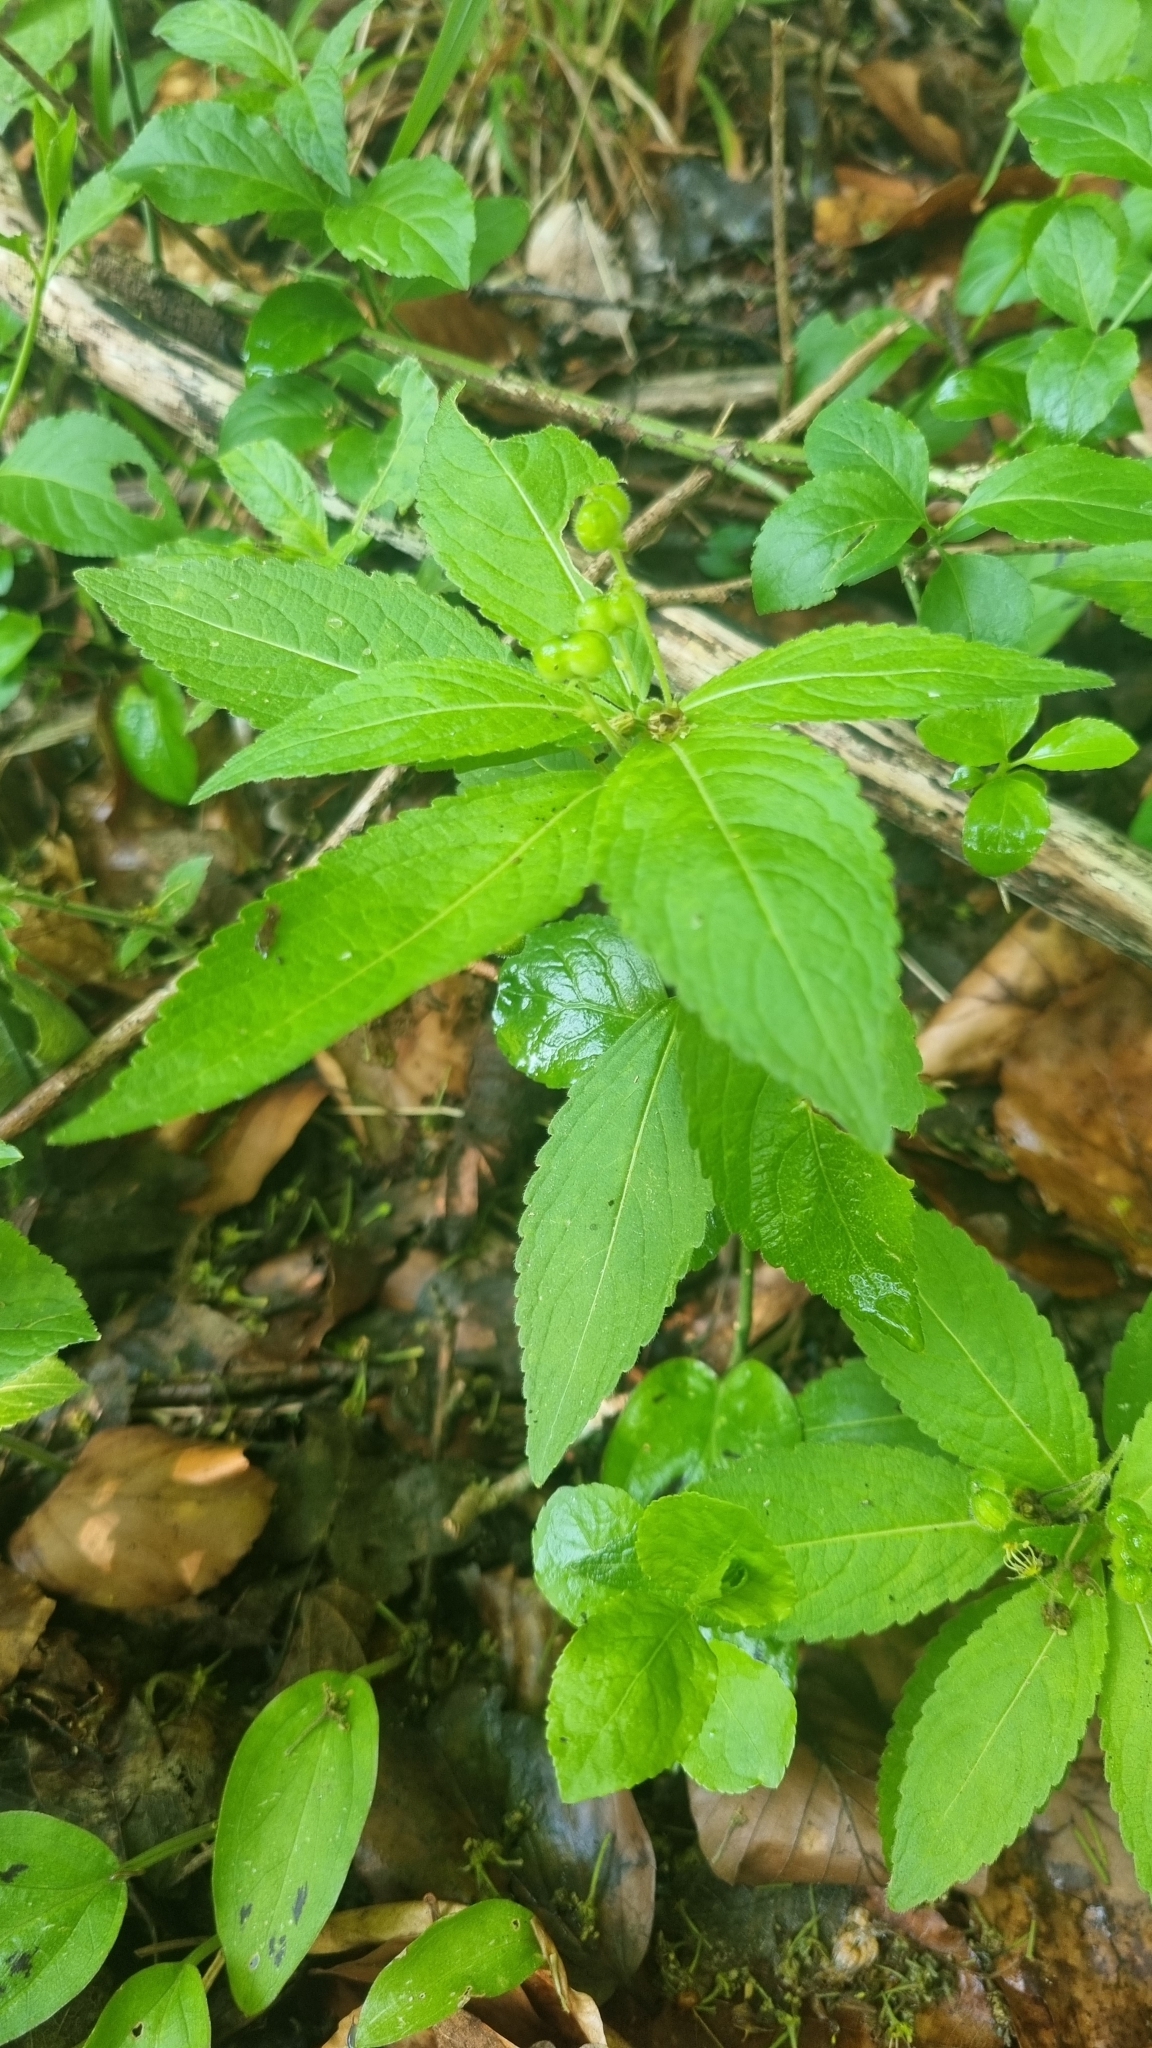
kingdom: Plantae
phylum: Tracheophyta
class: Magnoliopsida
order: Malpighiales
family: Euphorbiaceae
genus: Mercurialis
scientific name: Mercurialis perennis
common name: Dog mercury
